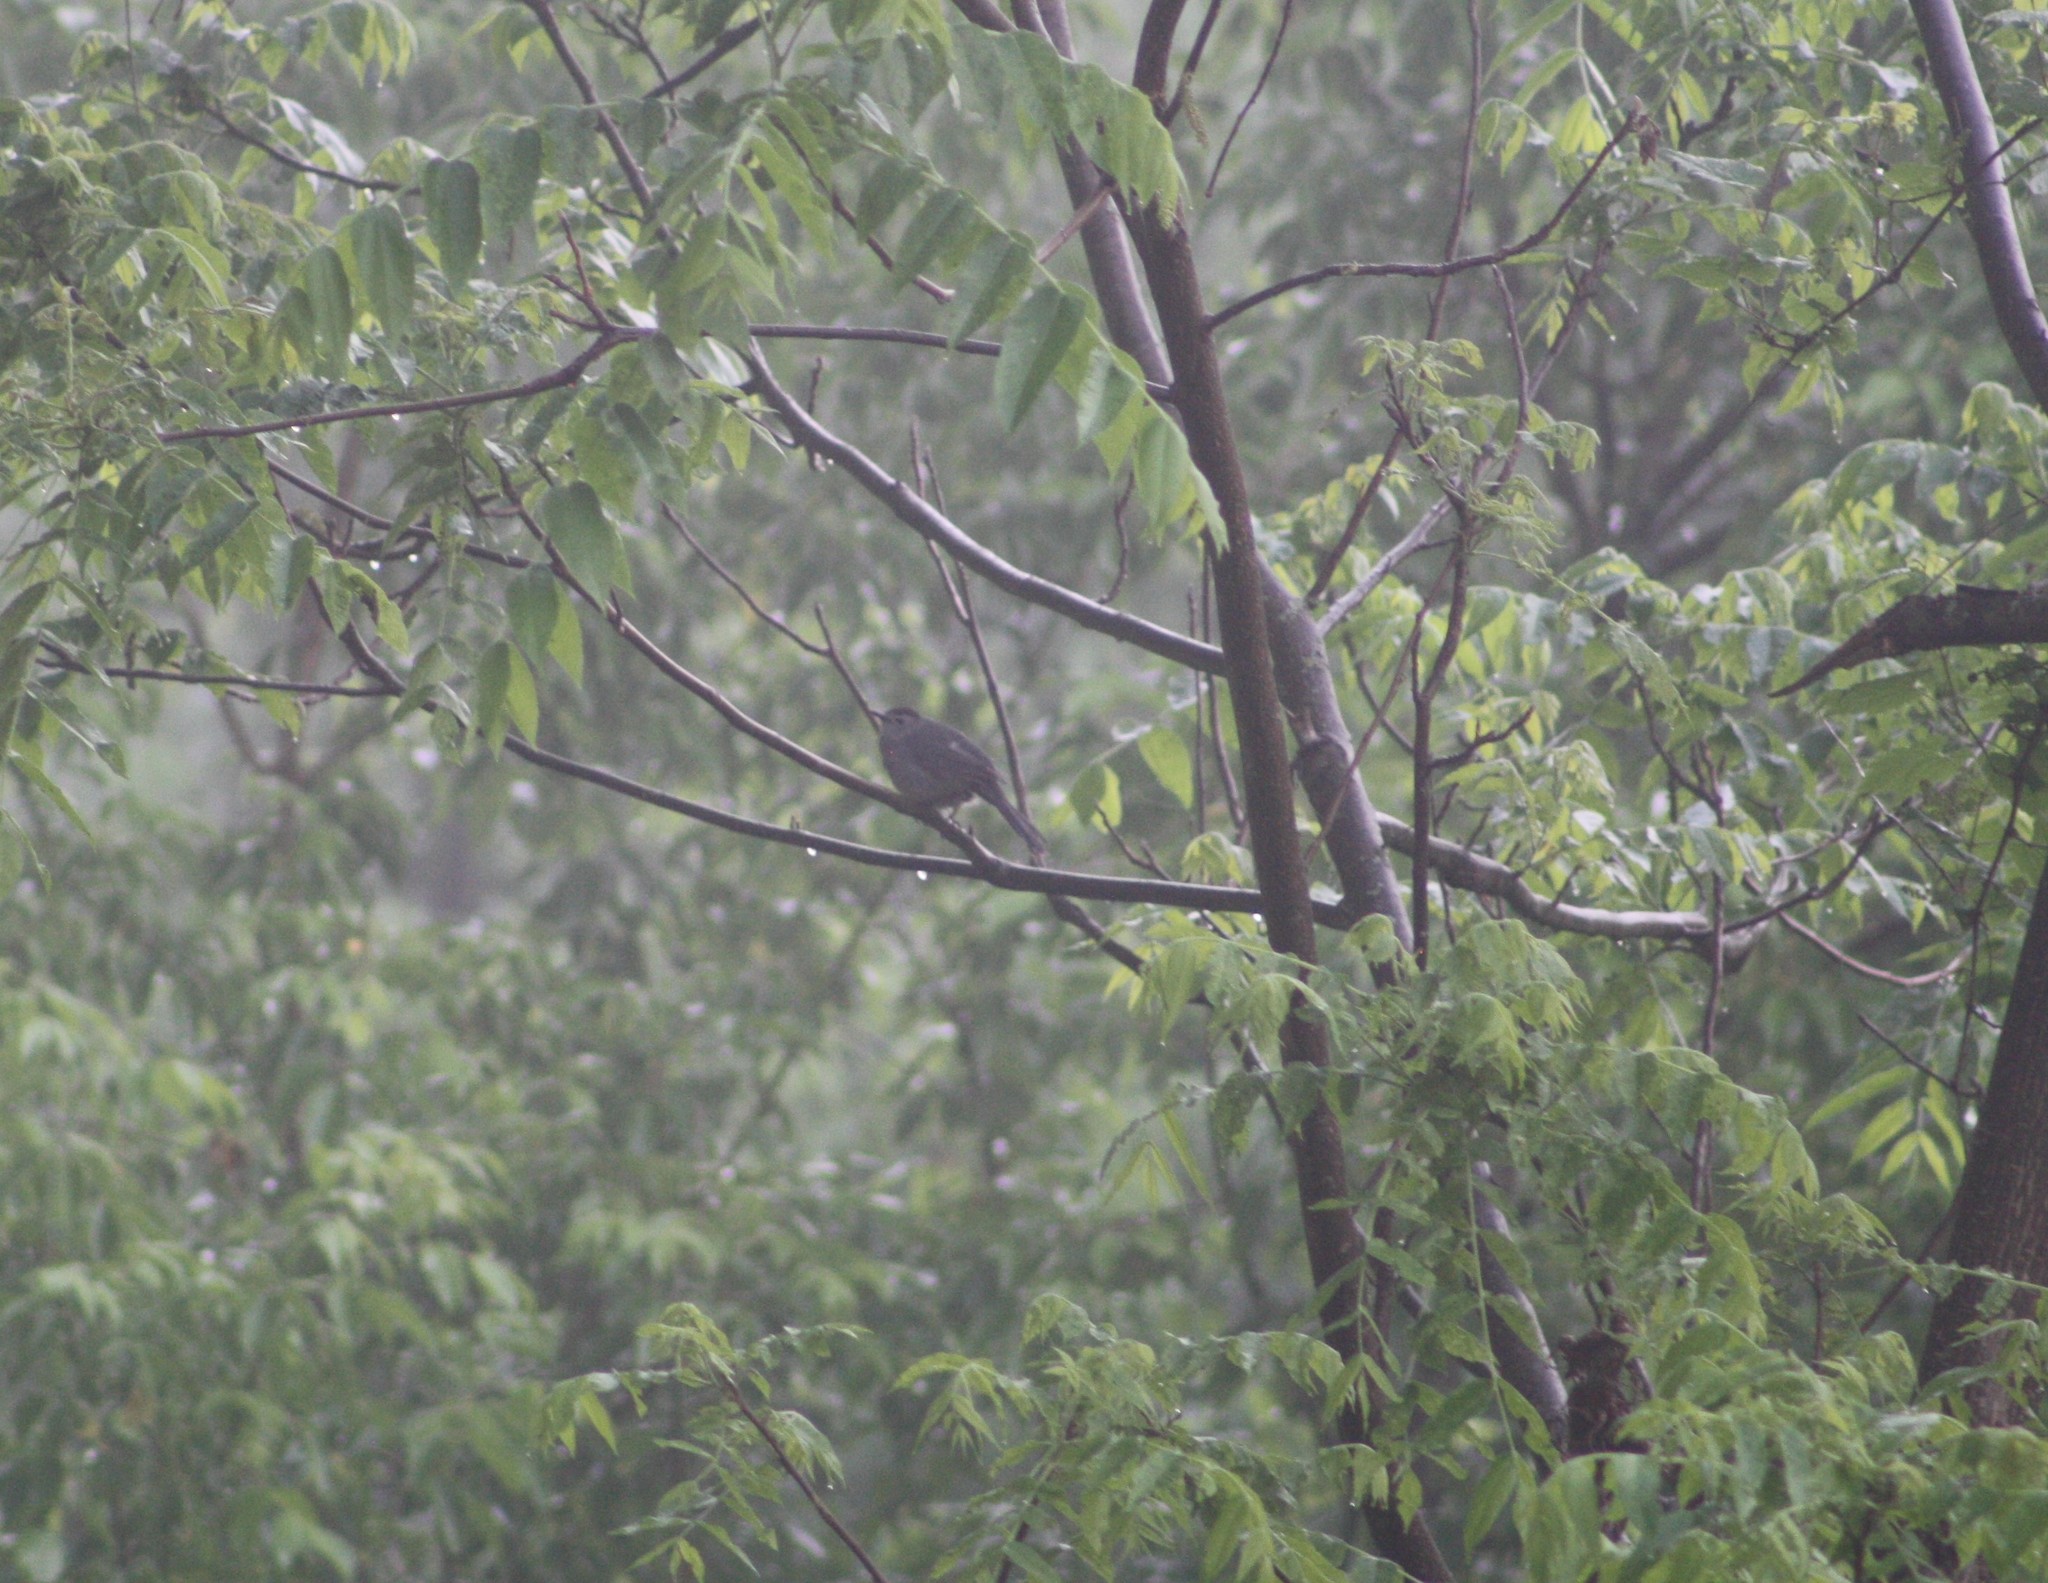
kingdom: Animalia
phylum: Chordata
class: Aves
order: Passeriformes
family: Mimidae
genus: Dumetella
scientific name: Dumetella carolinensis
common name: Gray catbird
